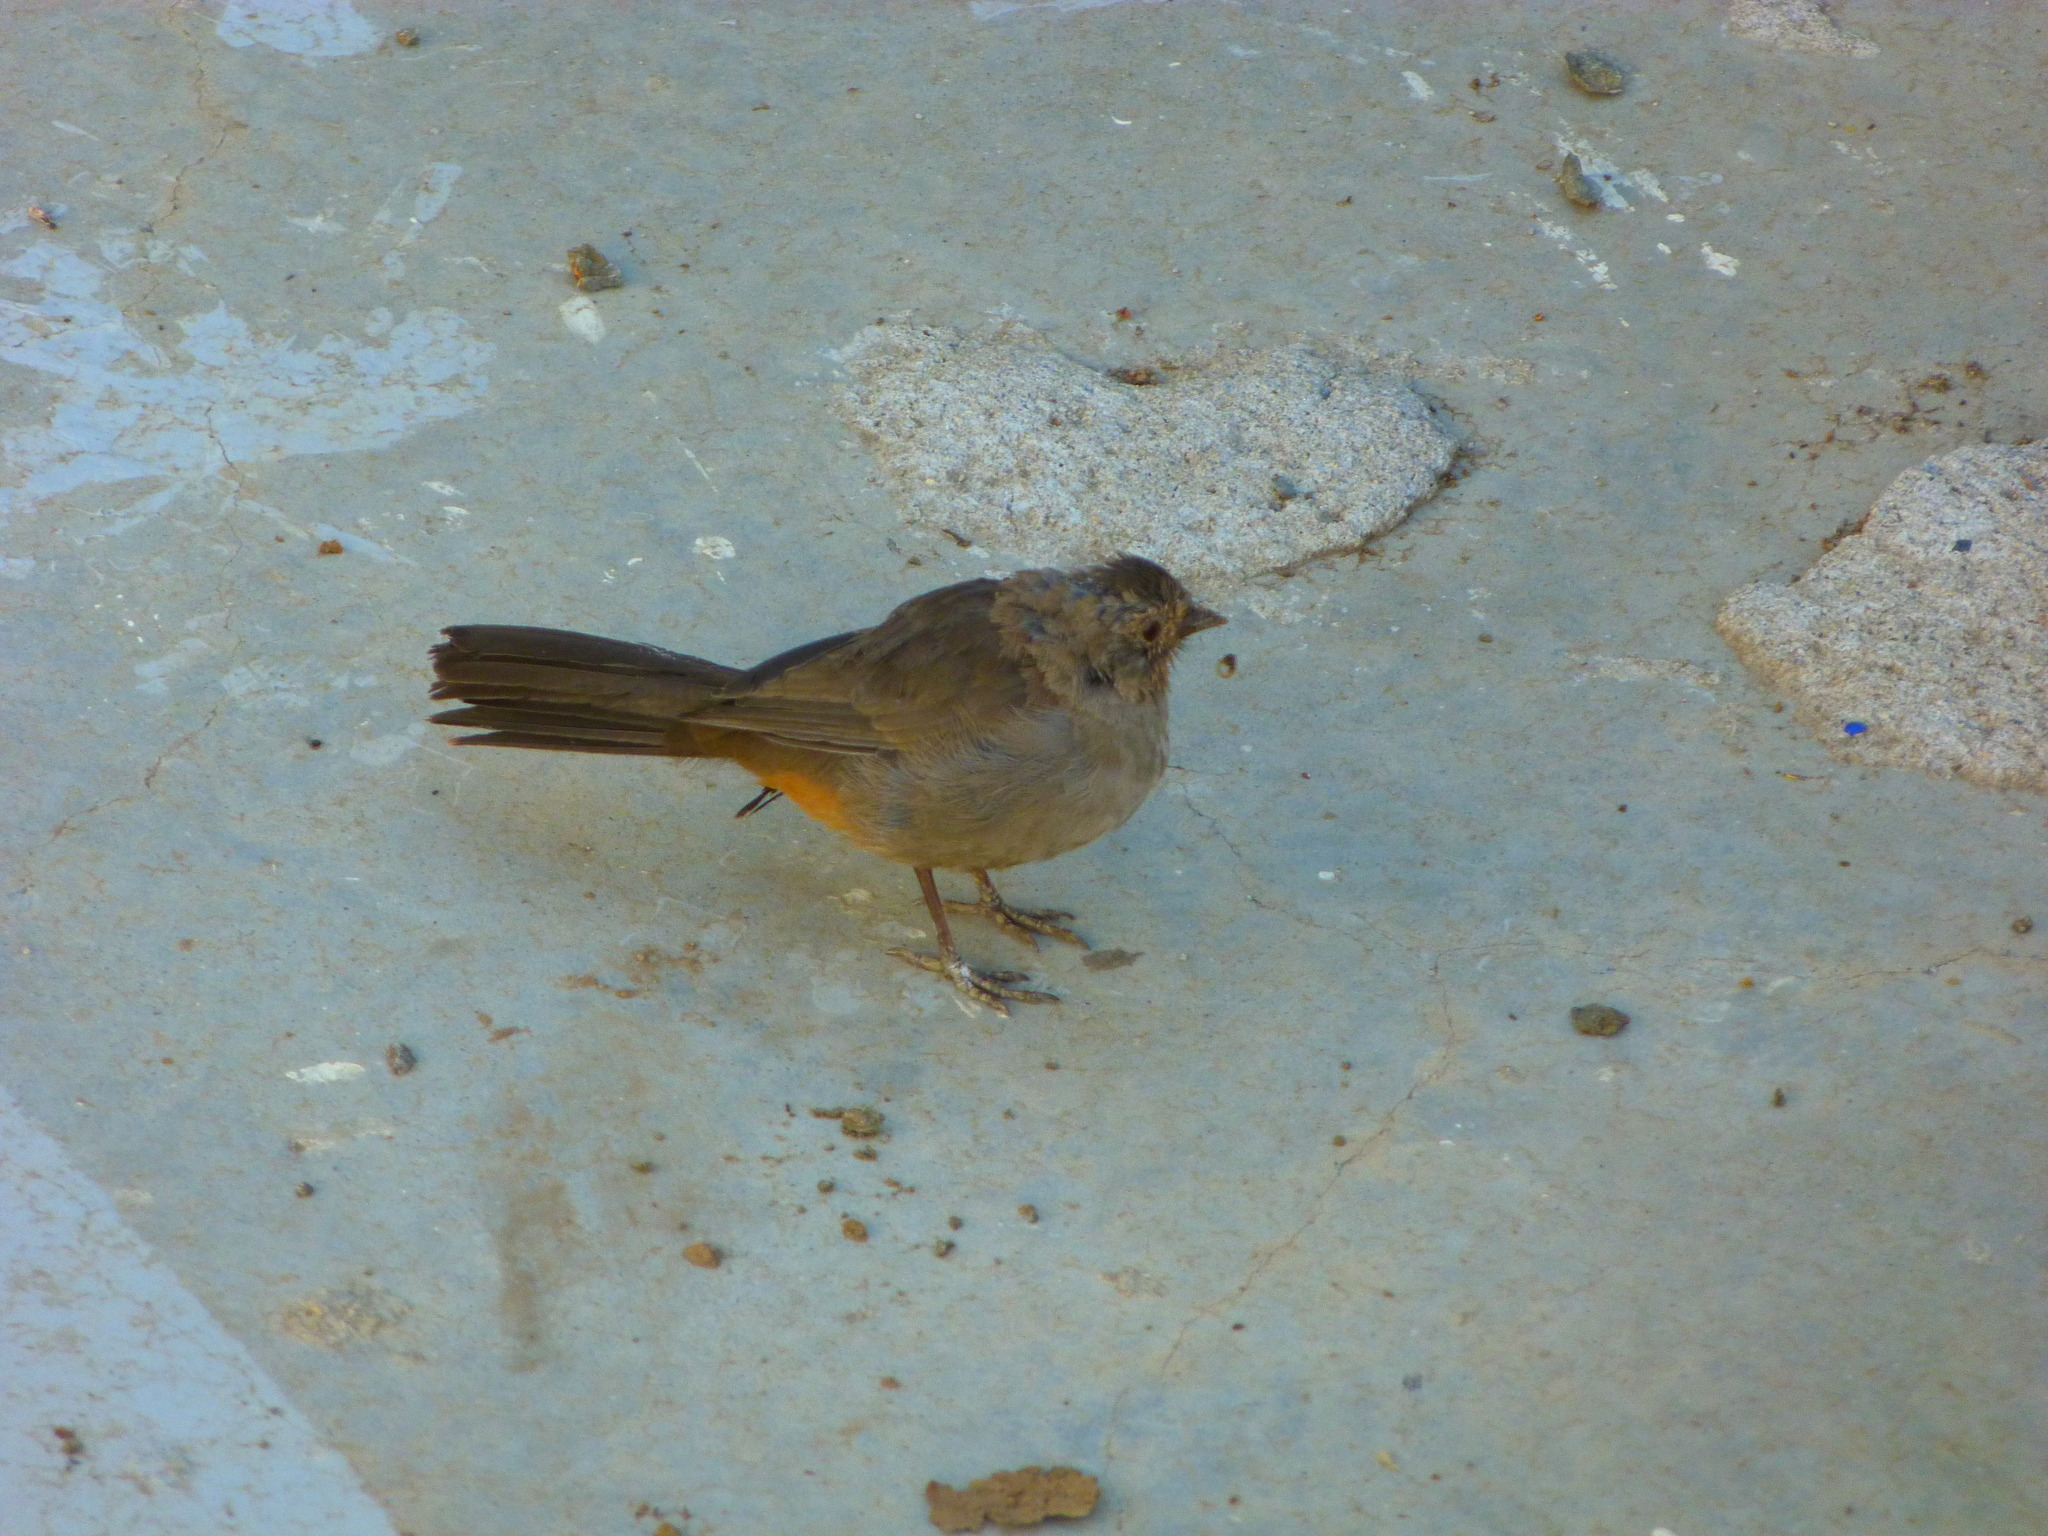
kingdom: Animalia
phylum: Chordata
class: Aves
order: Passeriformes
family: Passerellidae
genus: Melozone
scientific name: Melozone crissalis
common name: California towhee
